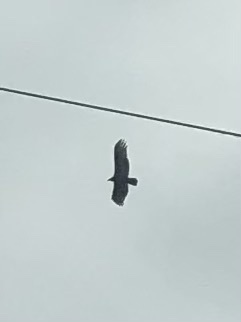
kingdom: Animalia
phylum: Chordata
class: Aves
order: Accipitriformes
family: Cathartidae
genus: Cathartes
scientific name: Cathartes aura
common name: Turkey vulture
